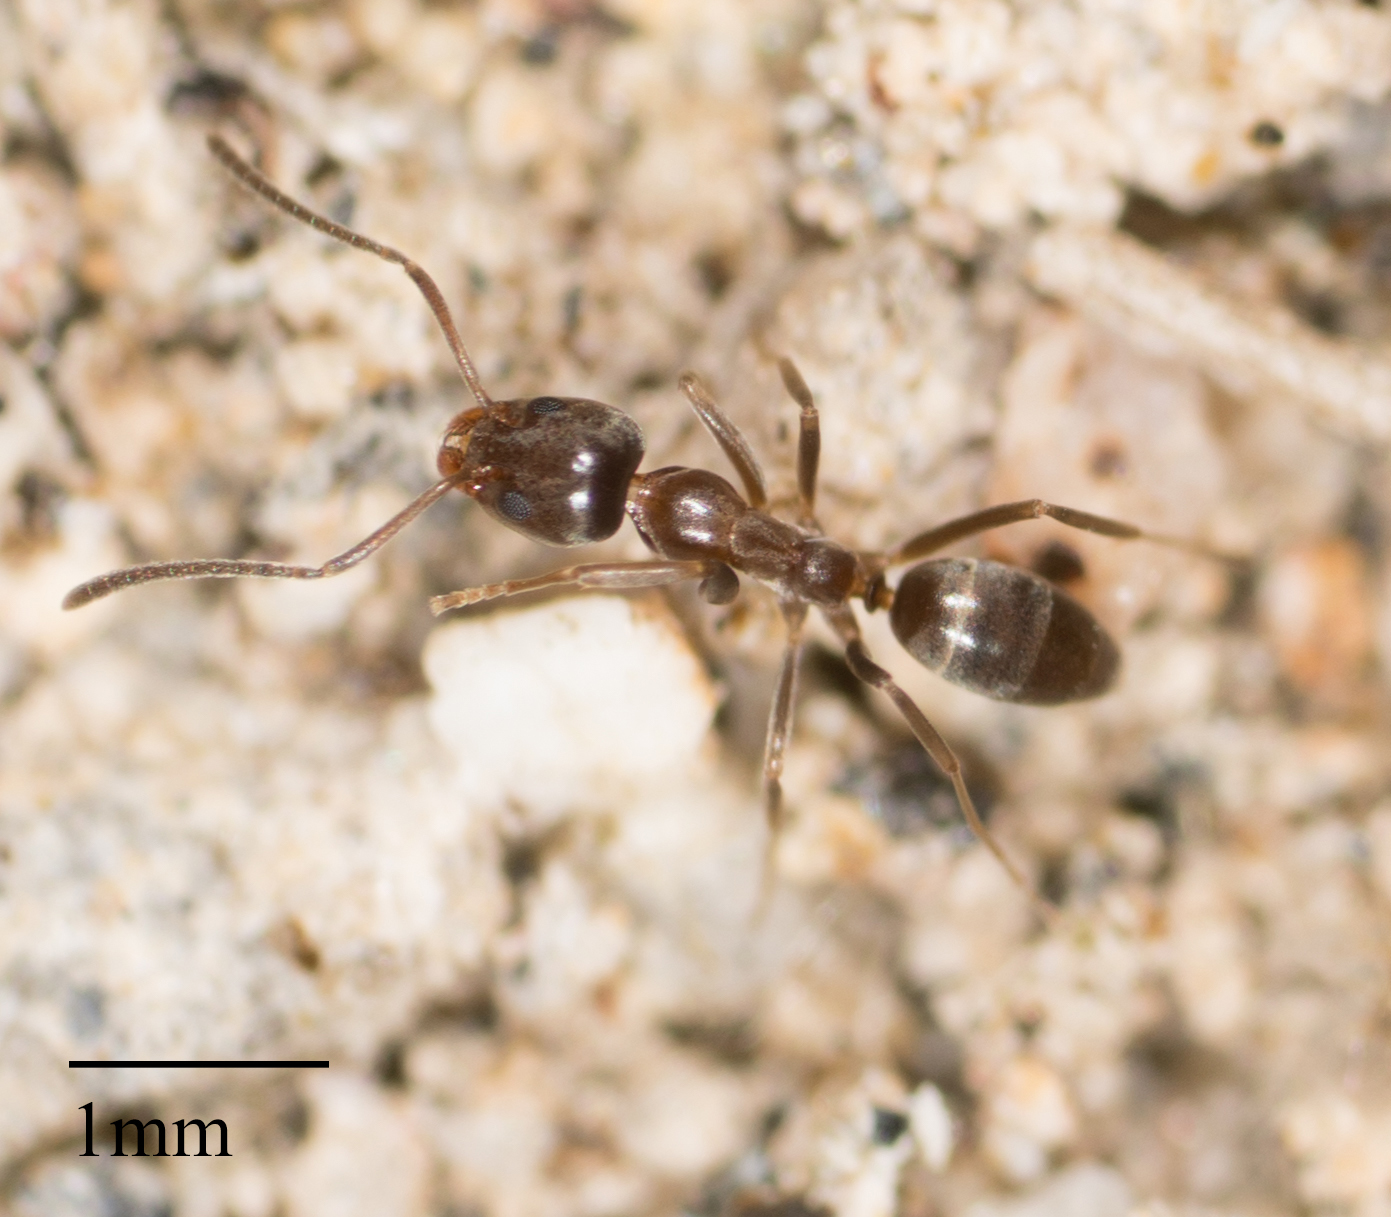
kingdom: Animalia
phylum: Arthropoda
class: Insecta
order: Hymenoptera
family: Formicidae
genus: Linepithema
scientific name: Linepithema humile
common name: Argentine ant
